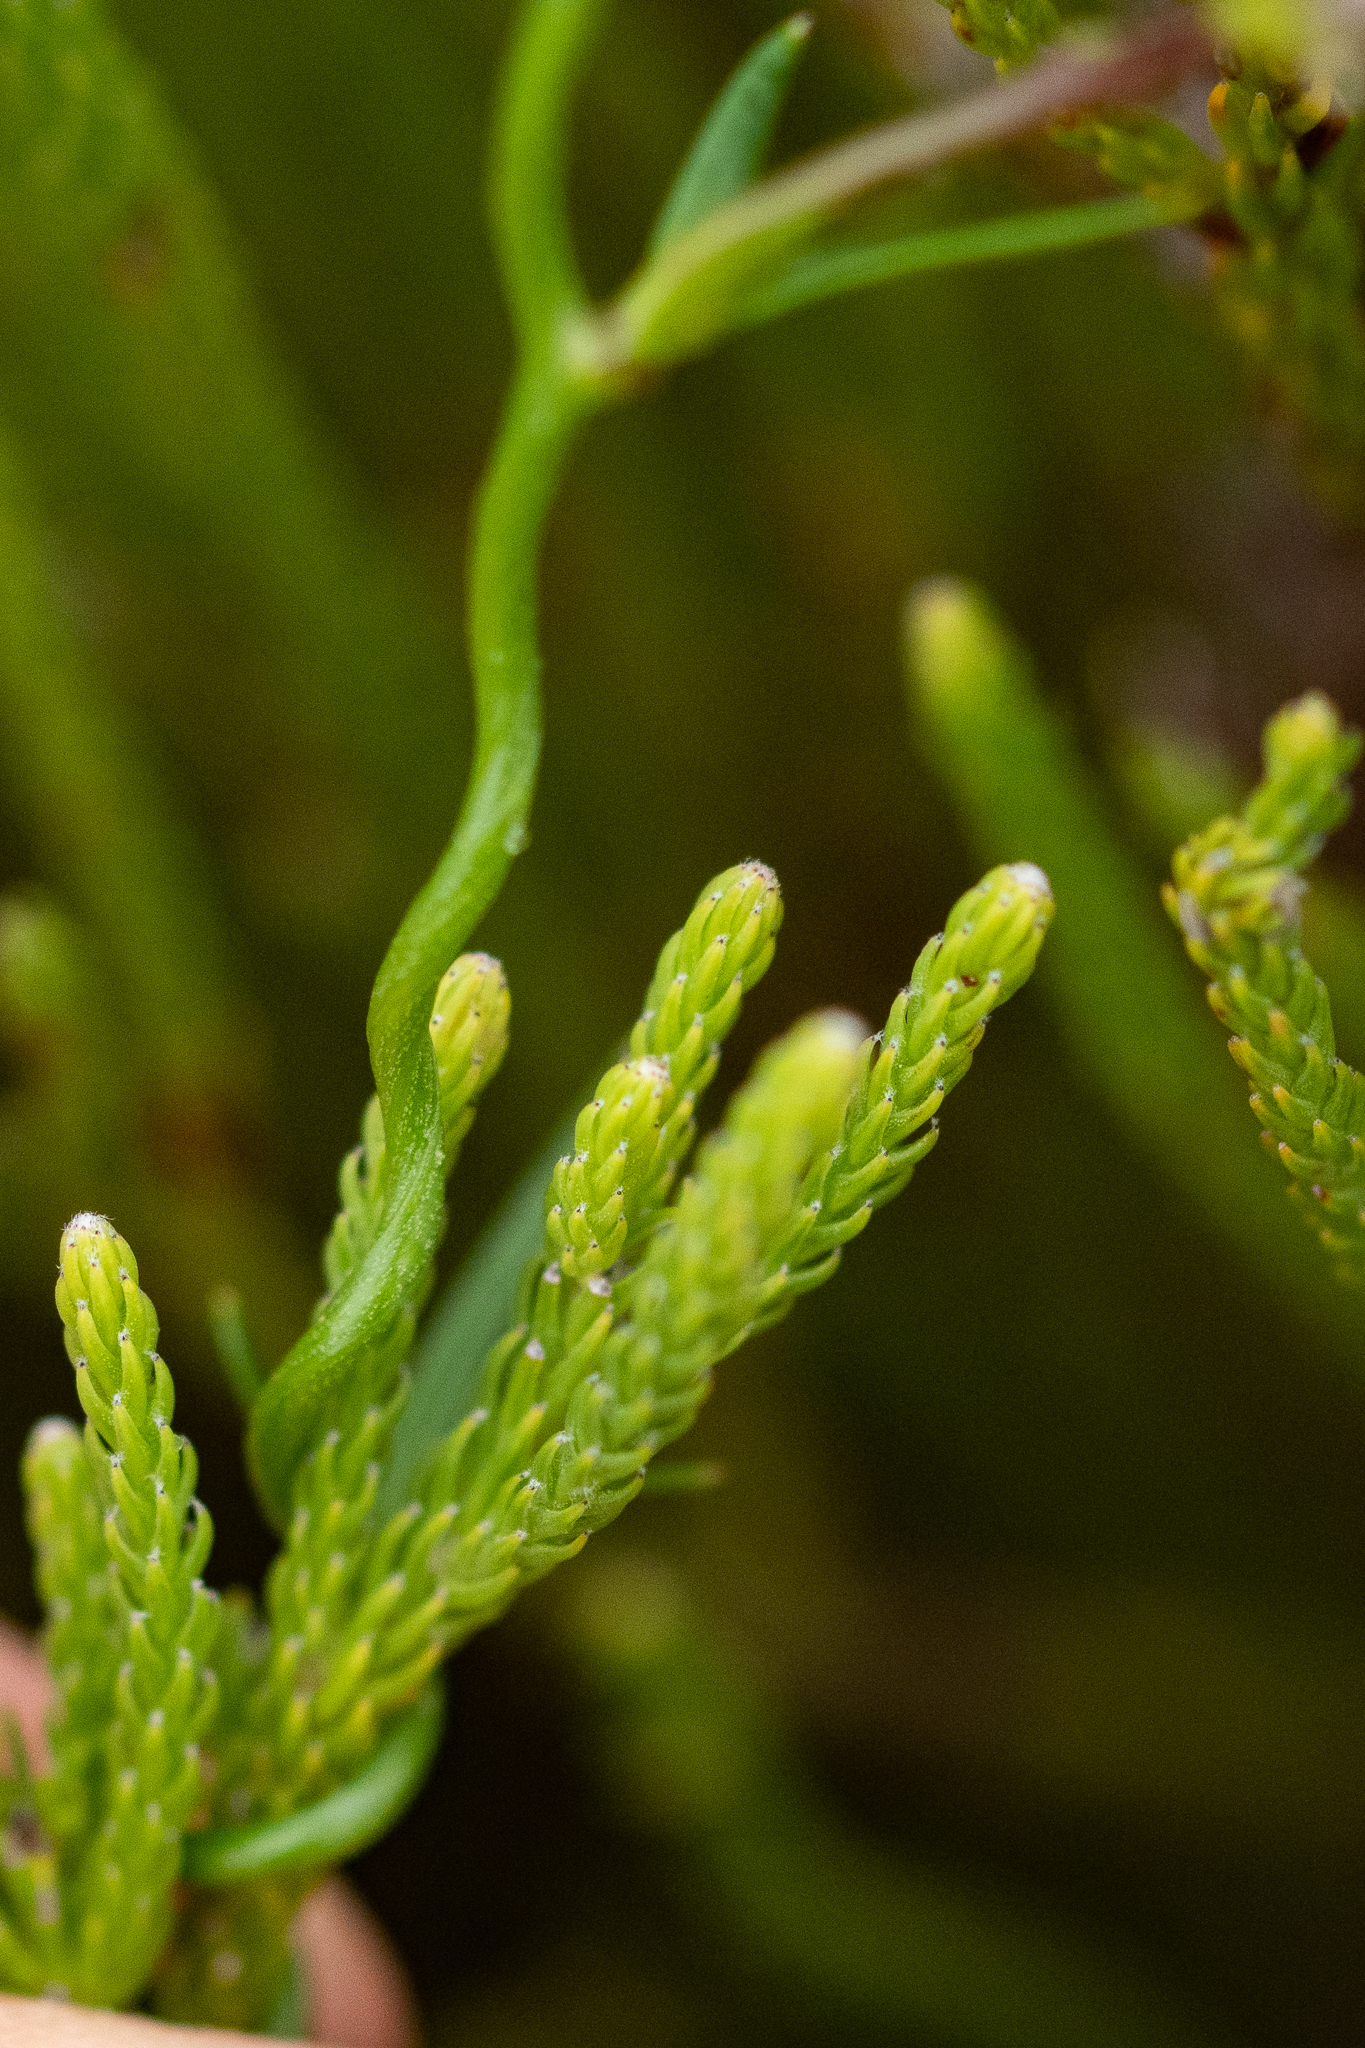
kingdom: Plantae
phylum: Tracheophyta
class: Magnoliopsida
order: Asterales
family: Campanulaceae
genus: Cyphia
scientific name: Cyphia volubilis
